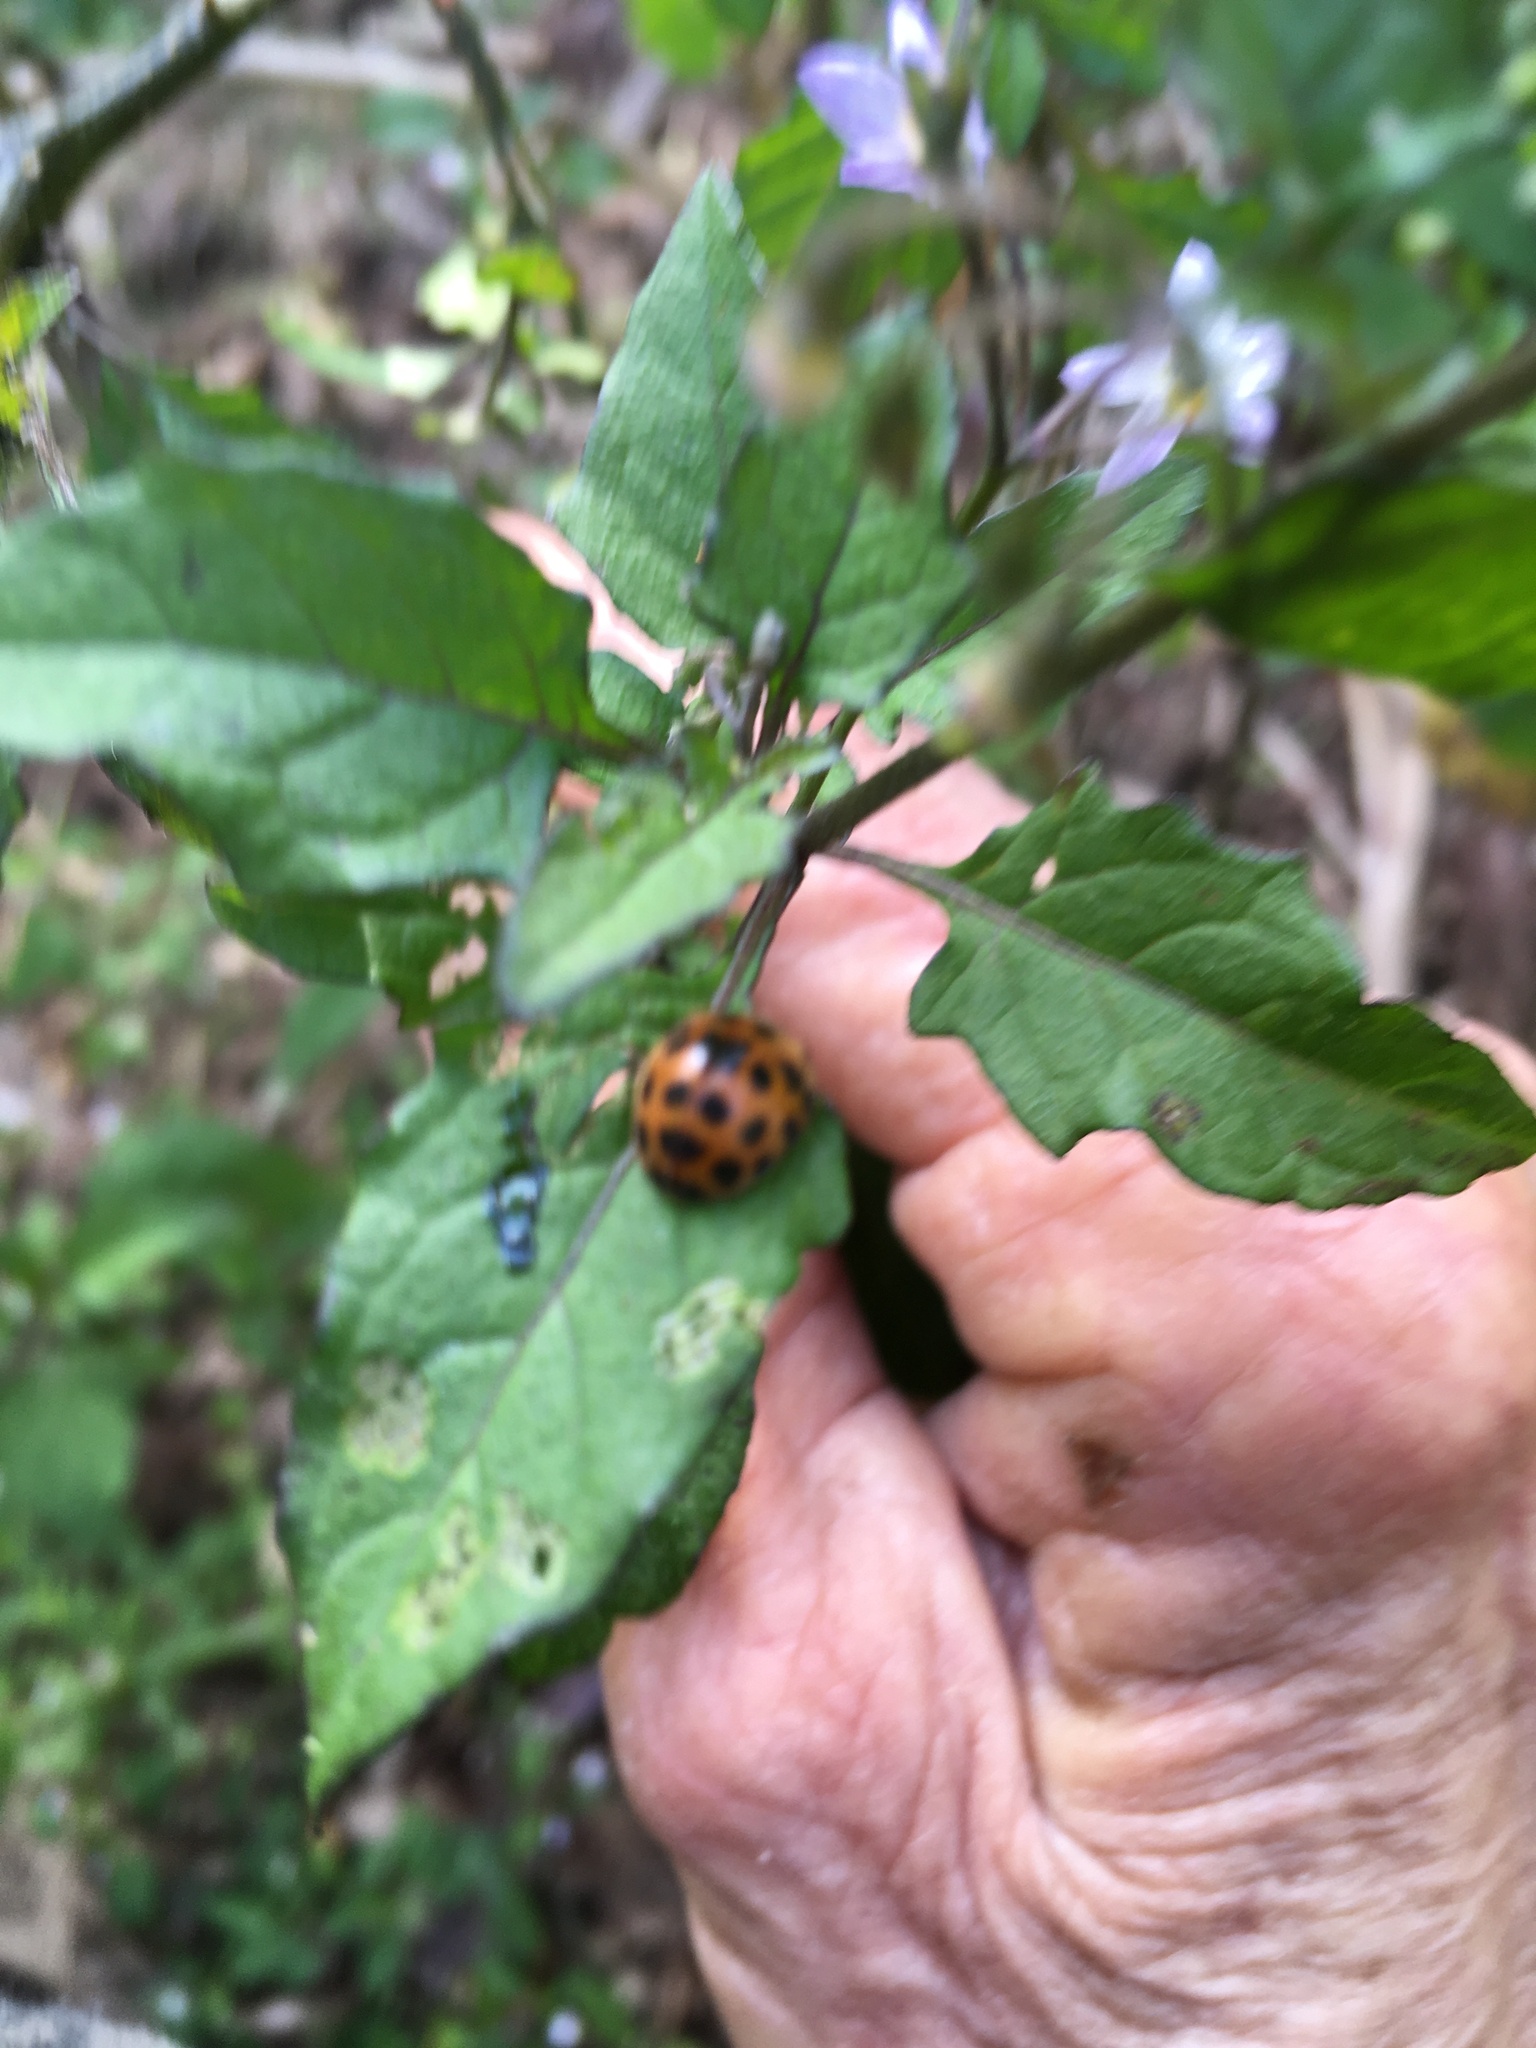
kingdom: Animalia
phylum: Arthropoda
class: Insecta
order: Coleoptera
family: Coccinellidae
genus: Henosepilachna
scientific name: Henosepilachna vigintioctopunctata
